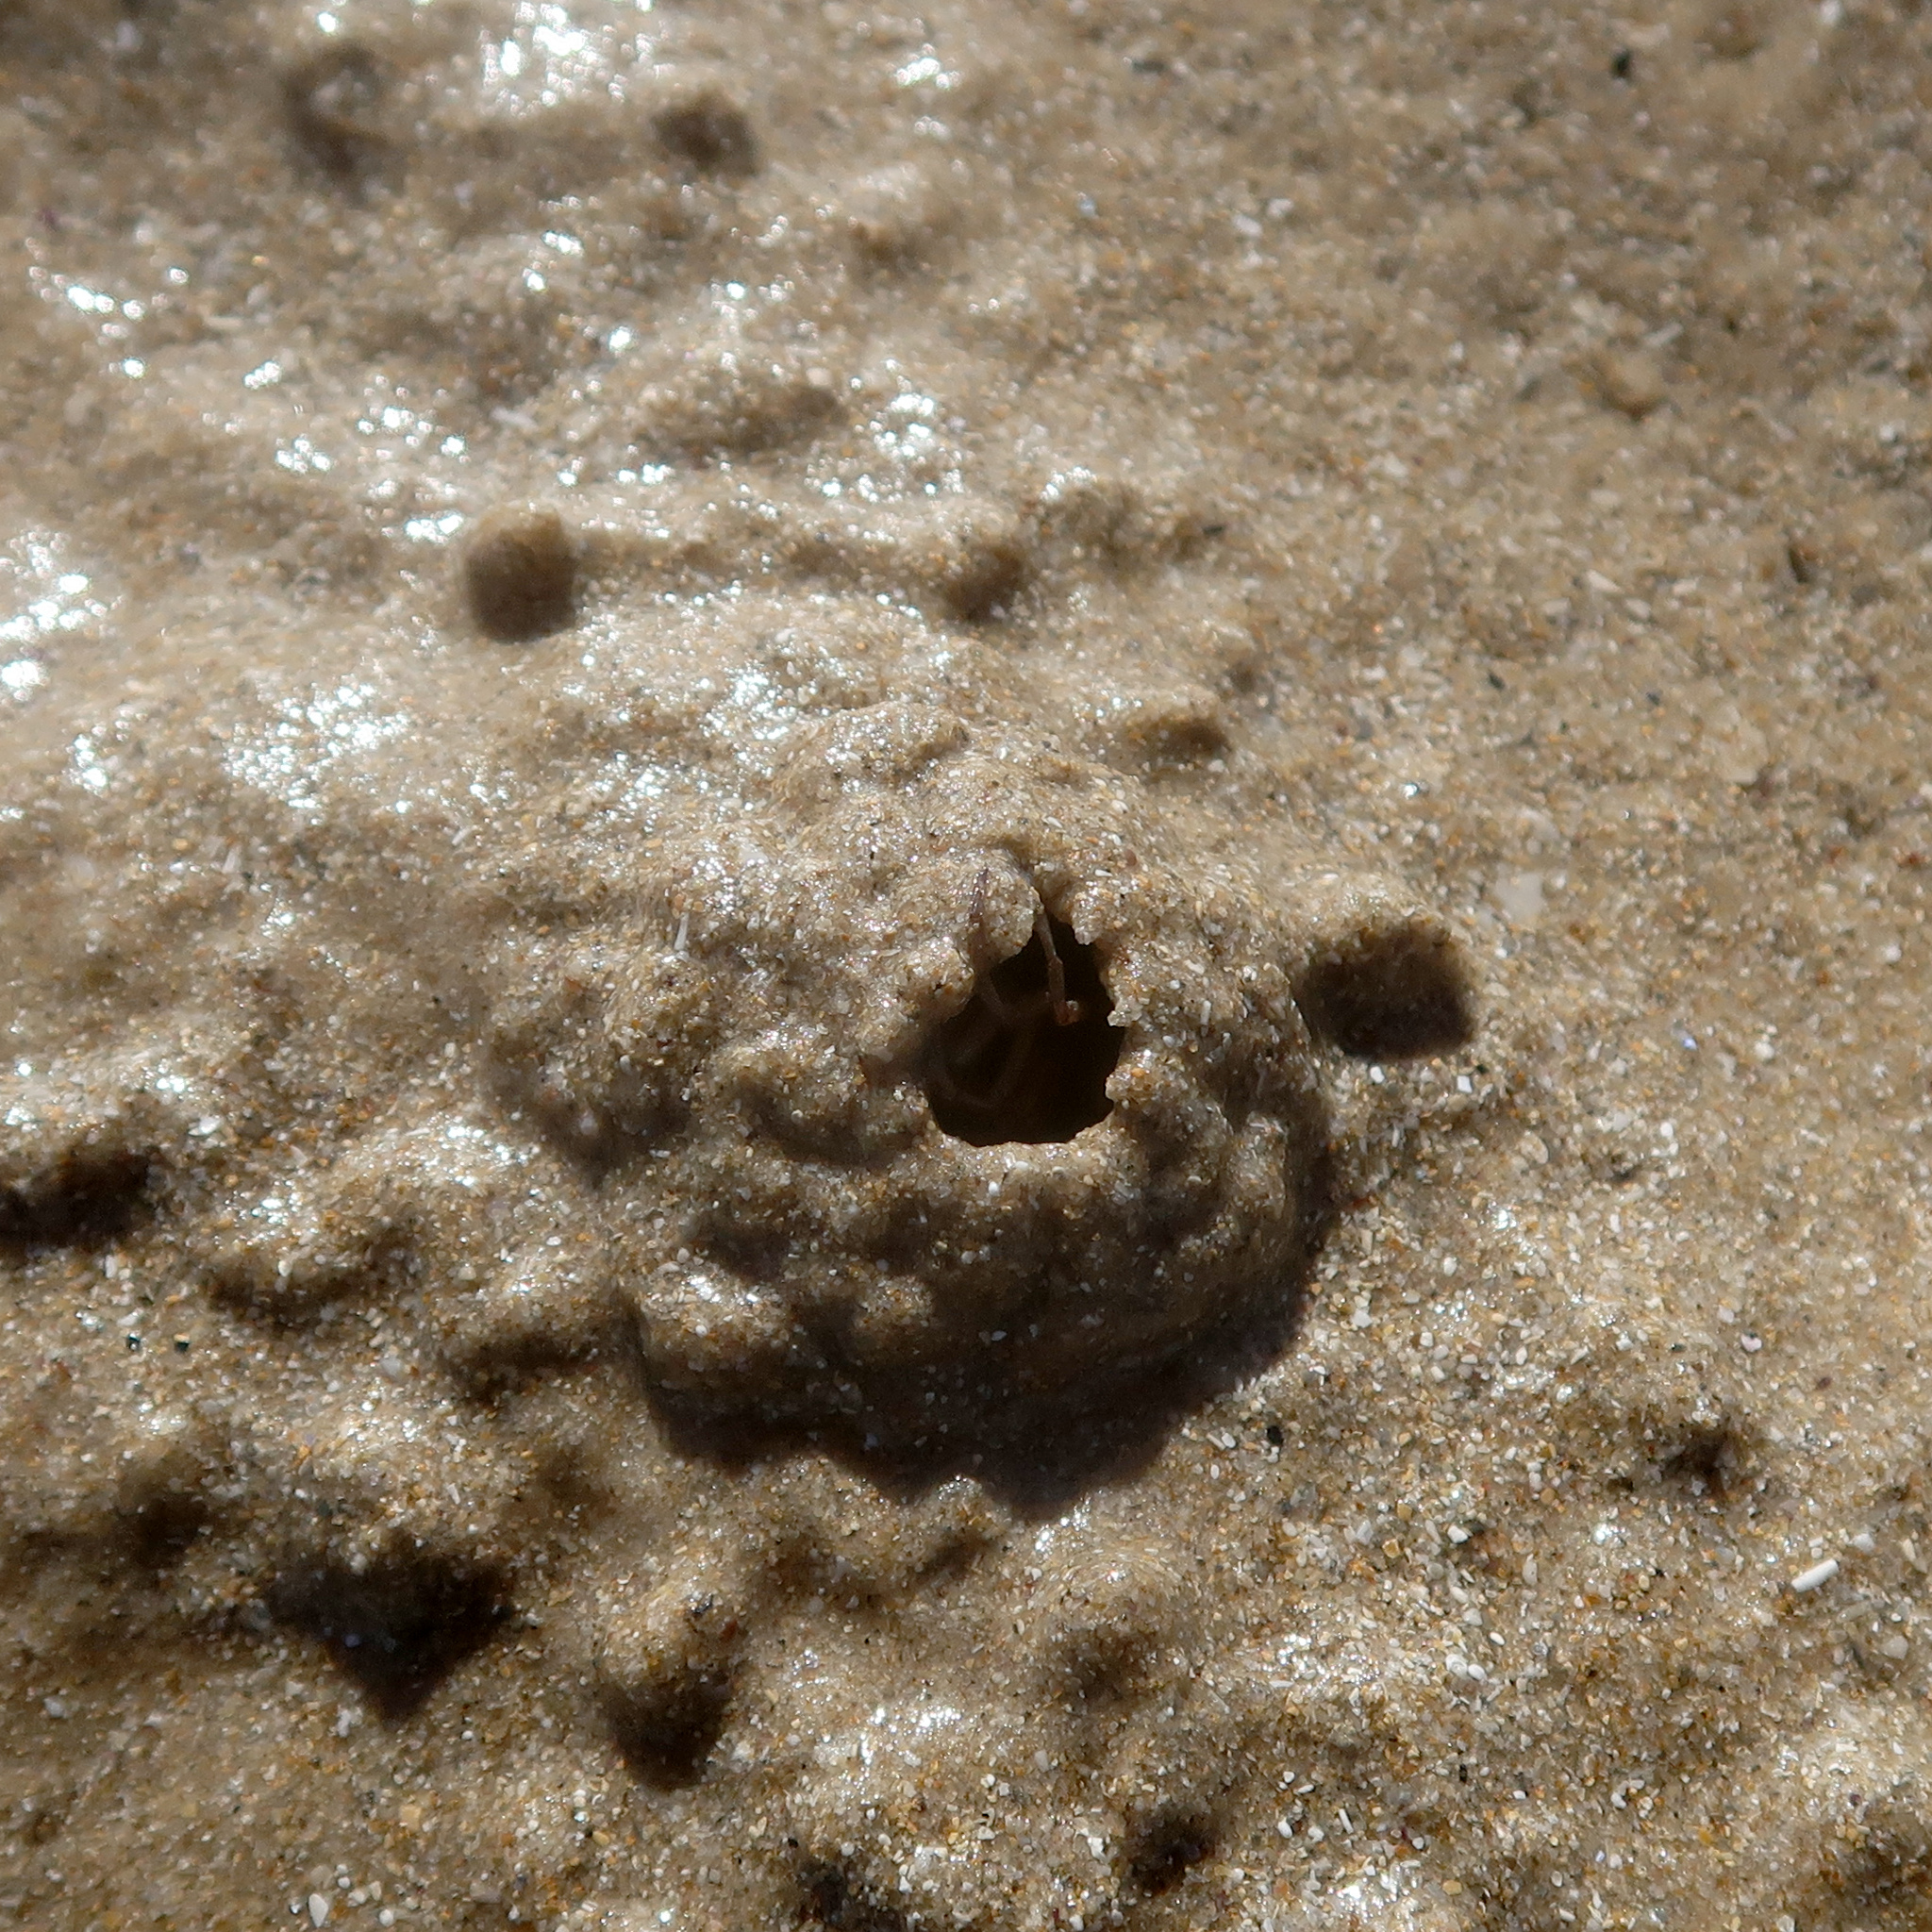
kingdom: Animalia
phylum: Arthropoda
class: Malacostraca
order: Decapoda
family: Mictyridae
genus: Mictyris
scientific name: Mictyris platycheles
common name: Dark blue soldier crab
